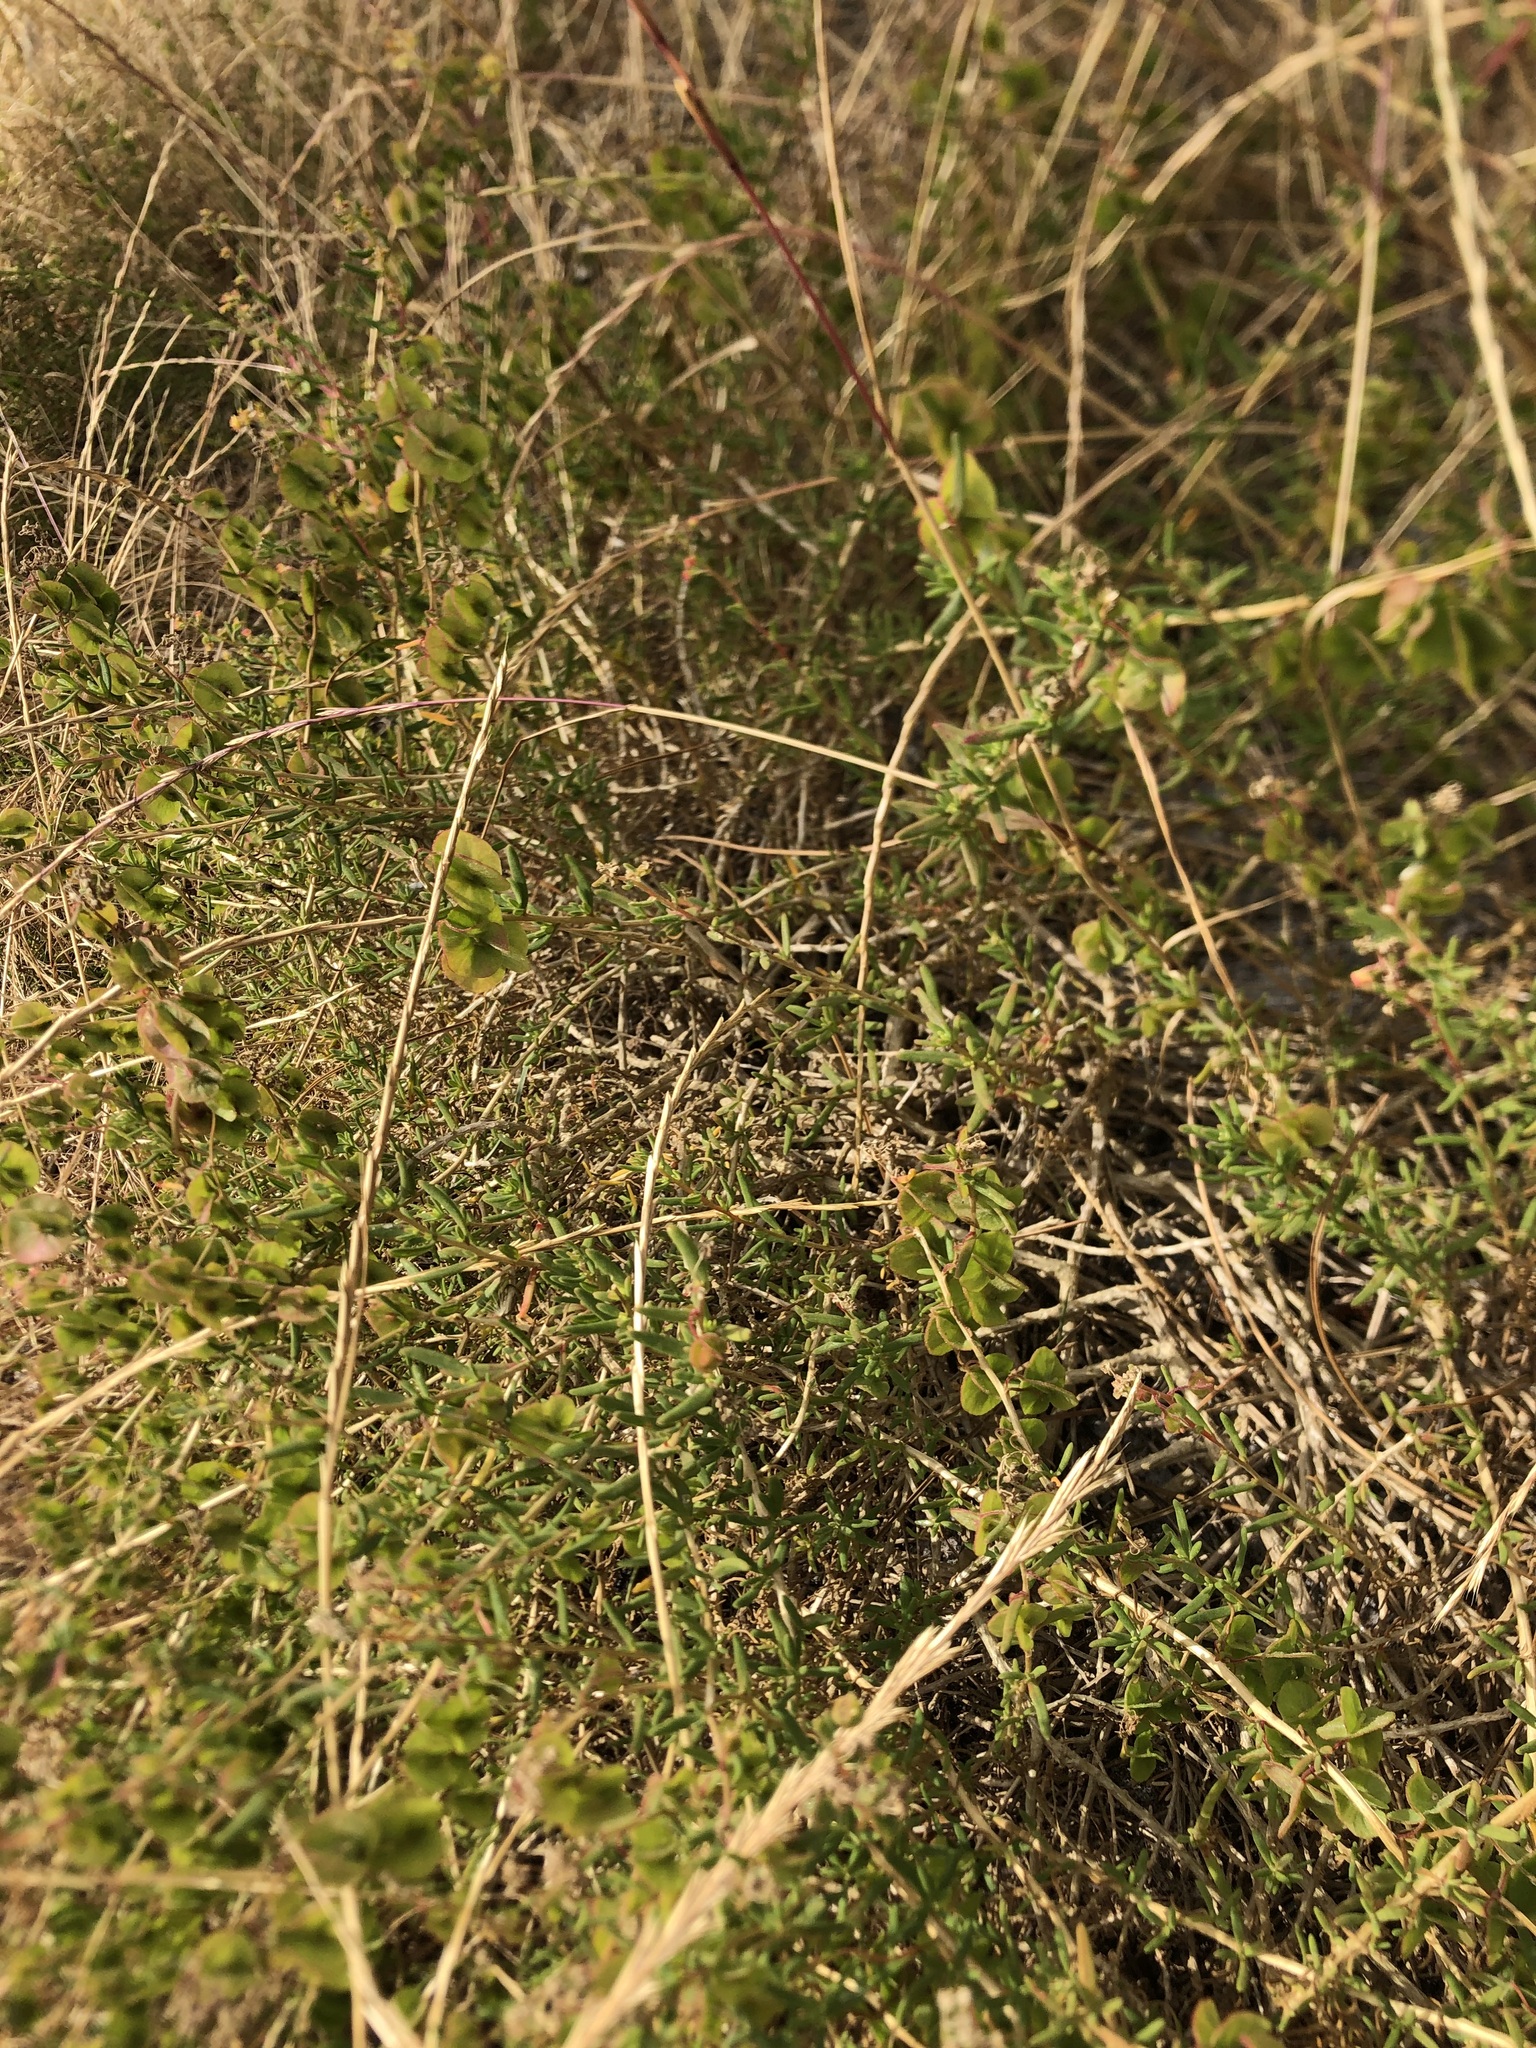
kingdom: Plantae
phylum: Tracheophyta
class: Magnoliopsida
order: Caryophyllales
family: Aizoaceae
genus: Tetragonia
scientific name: Tetragonia fruticosa
